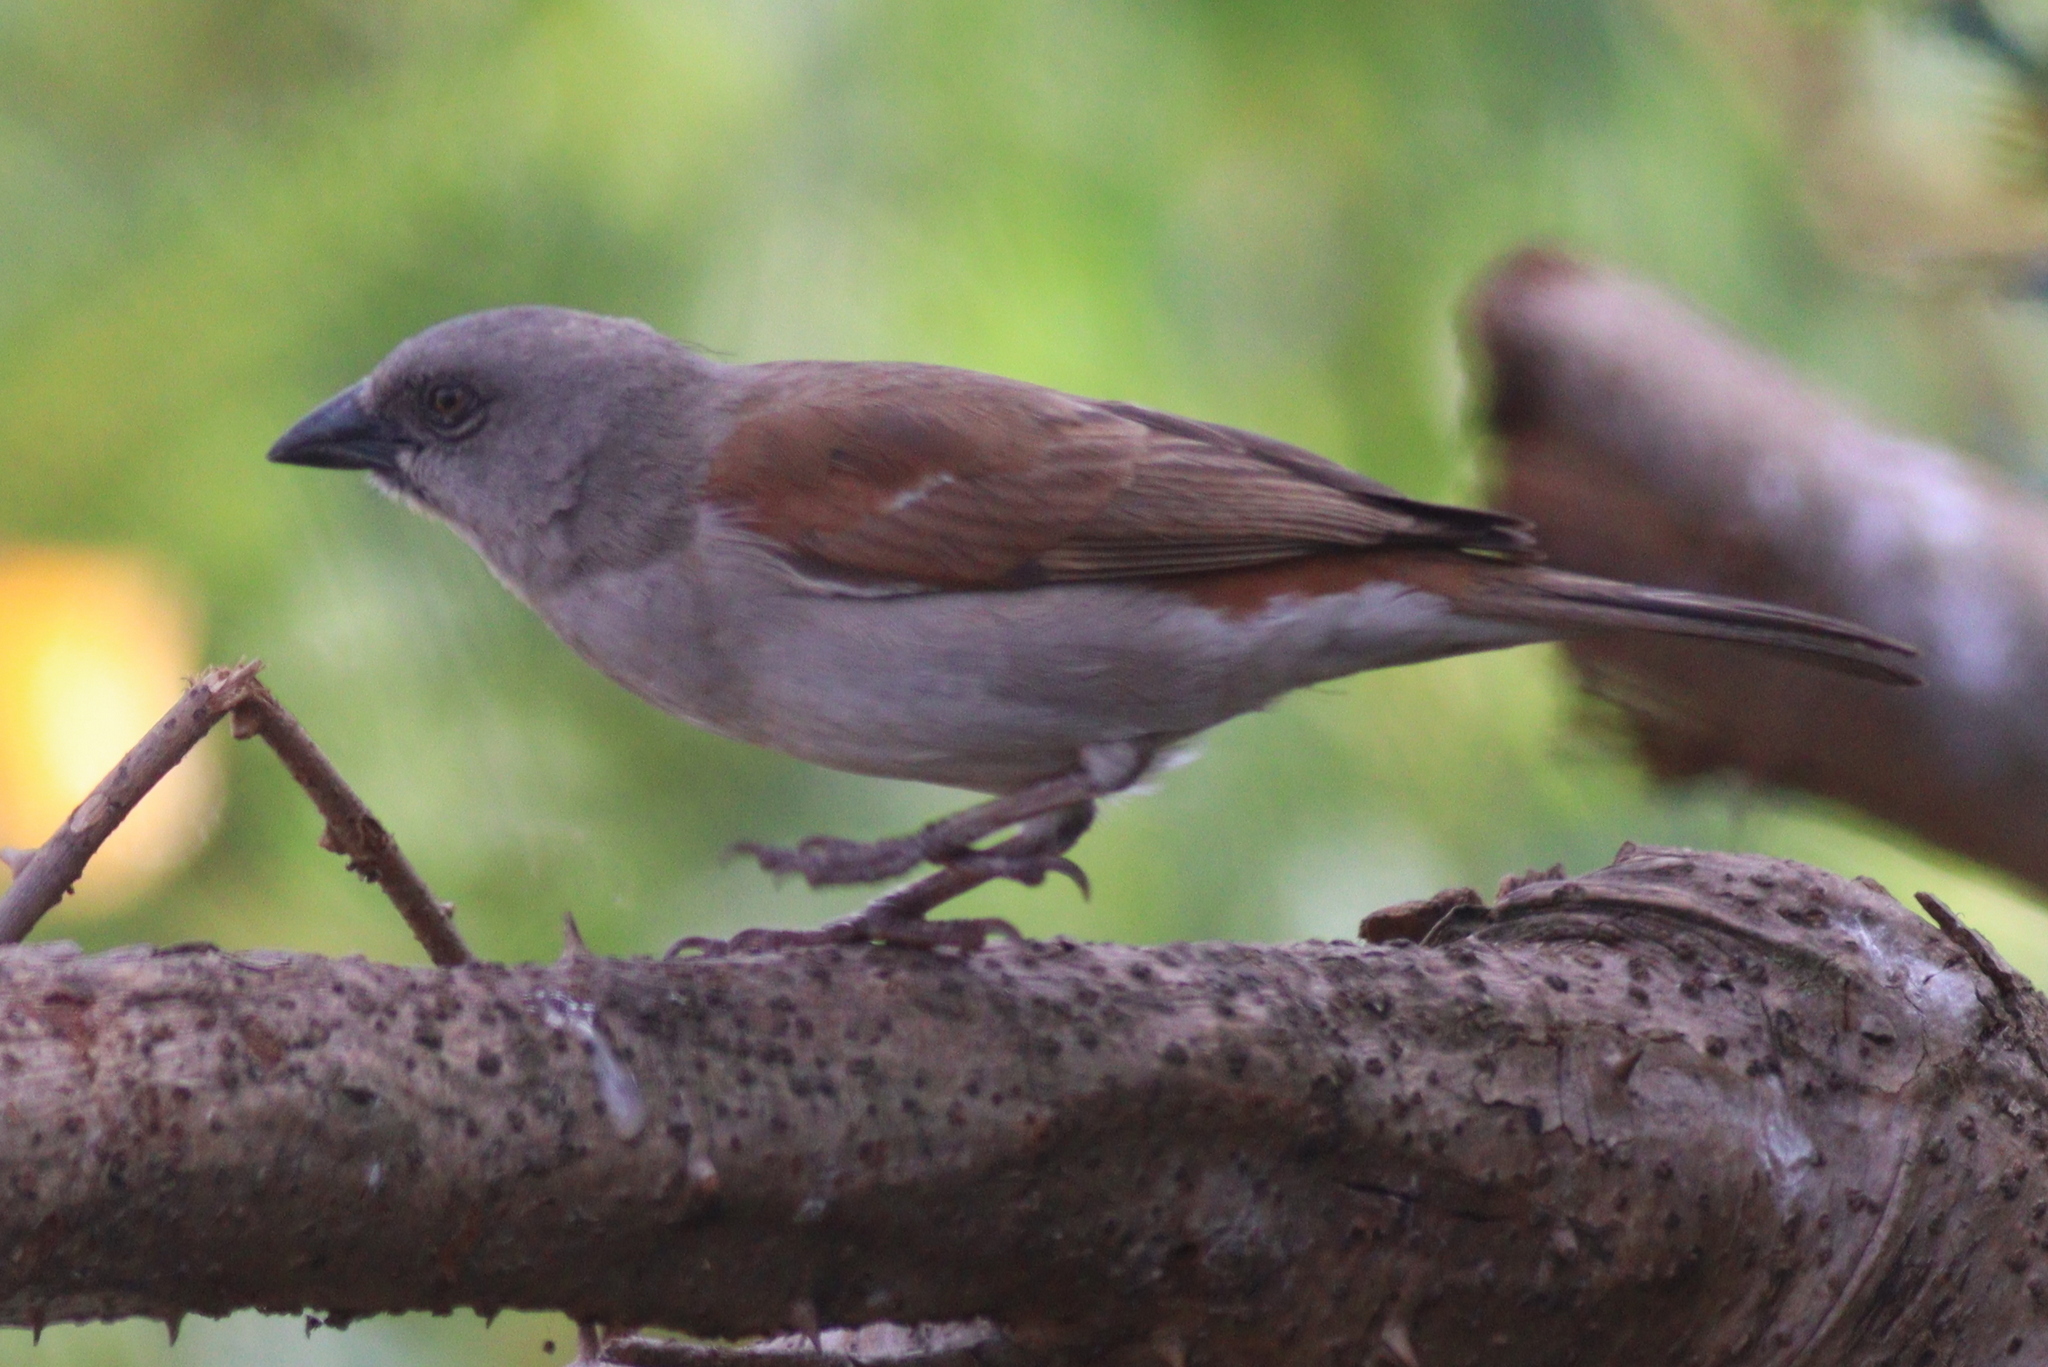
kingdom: Animalia
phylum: Chordata
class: Aves
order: Passeriformes
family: Passeridae
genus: Passer
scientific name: Passer griseus
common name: Northern grey-headed sparrow
